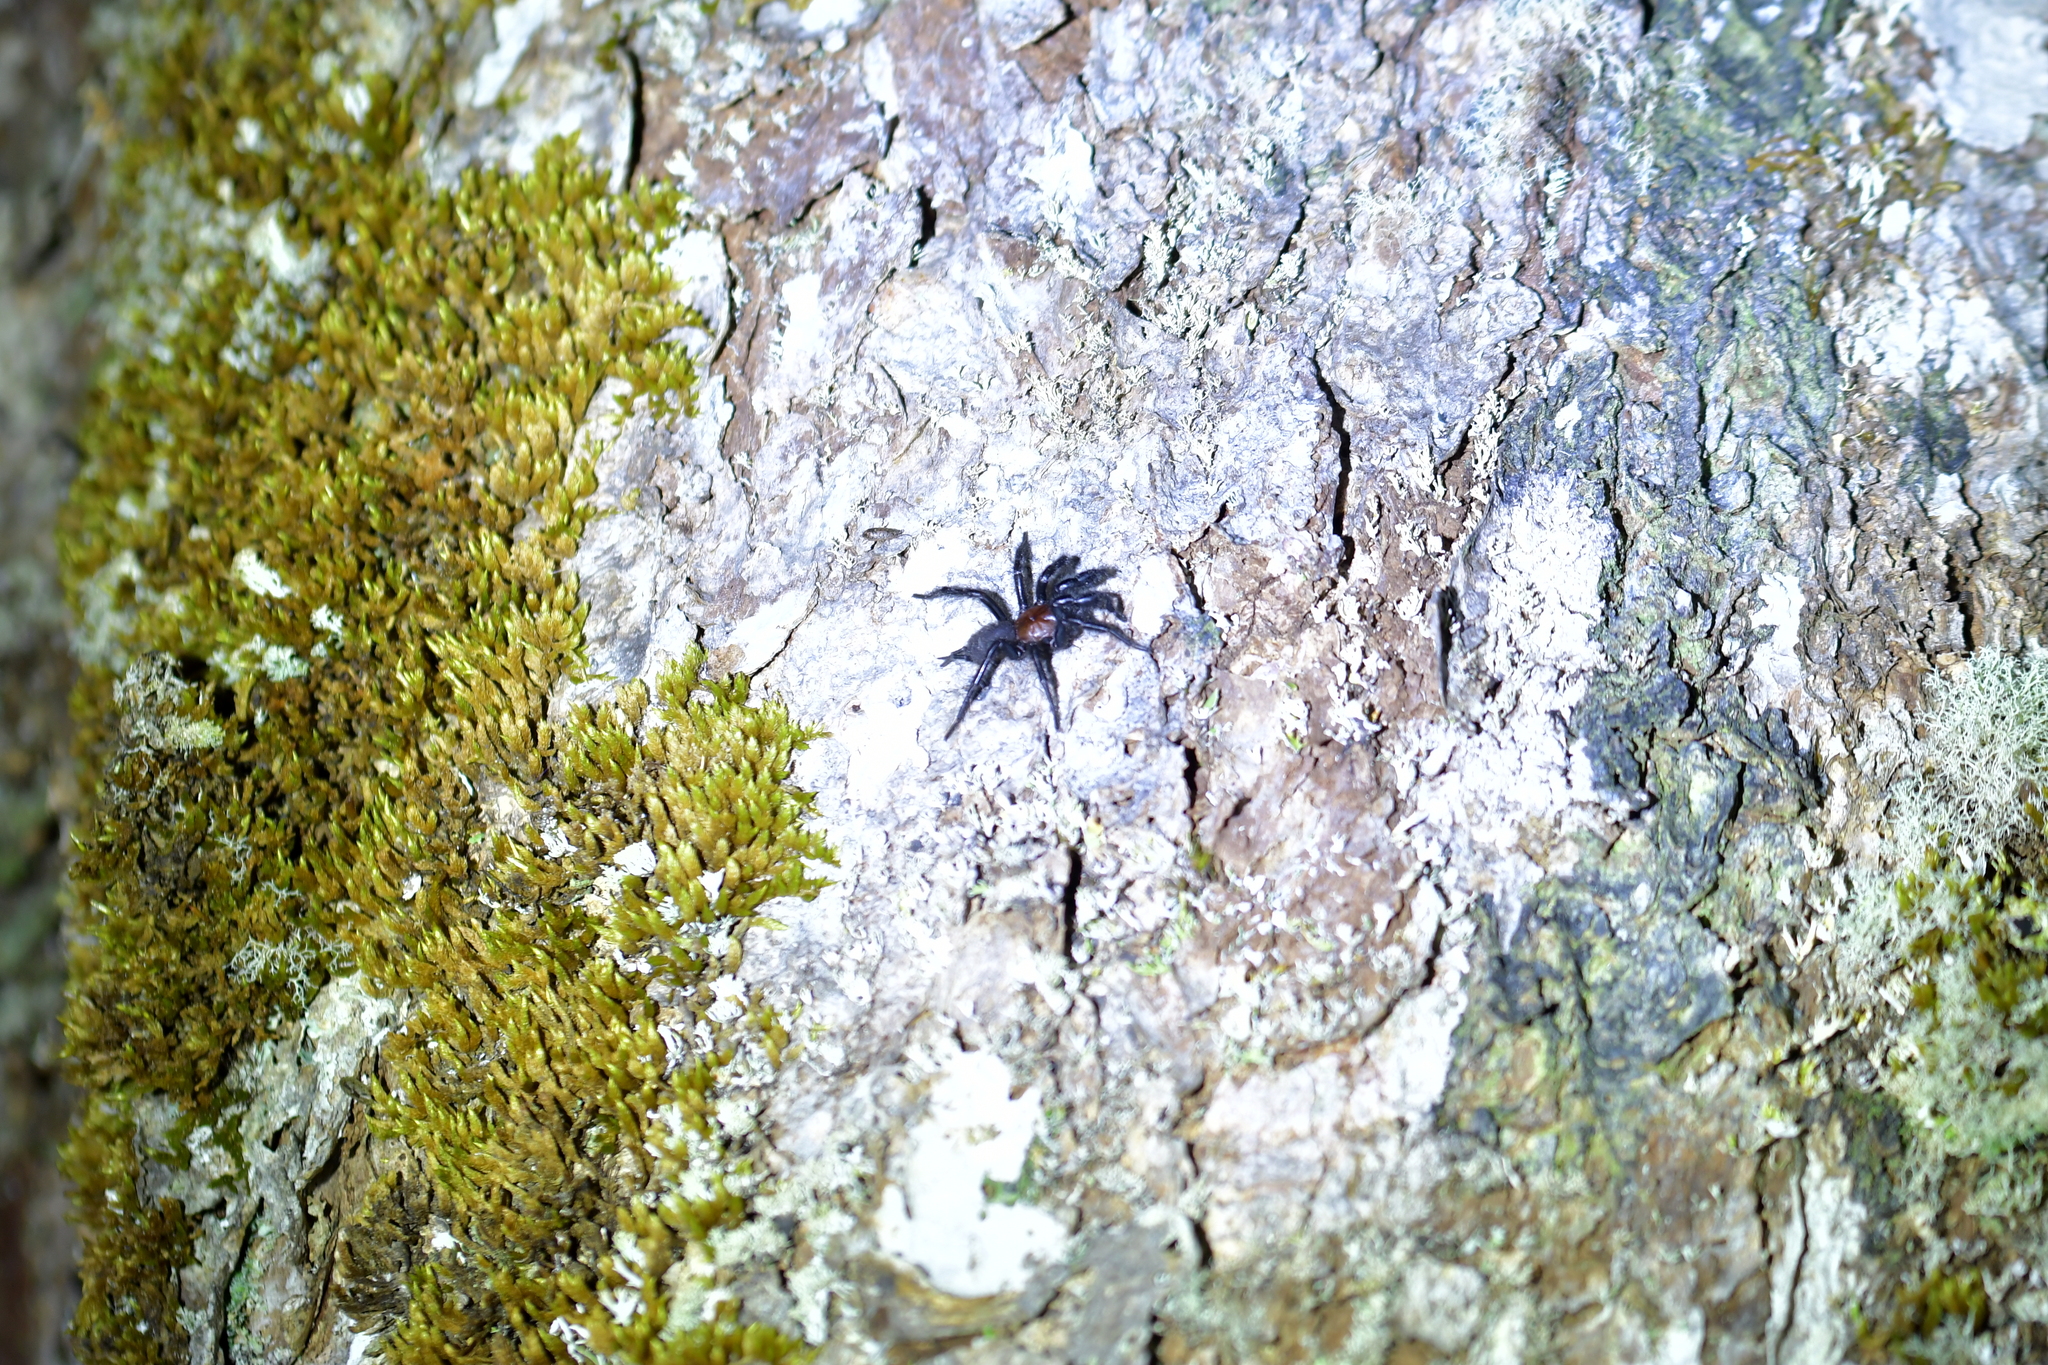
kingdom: Animalia
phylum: Arthropoda
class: Arachnida
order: Araneae
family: Porrhothelidae
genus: Porrhothele
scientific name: Porrhothele antipodiana
